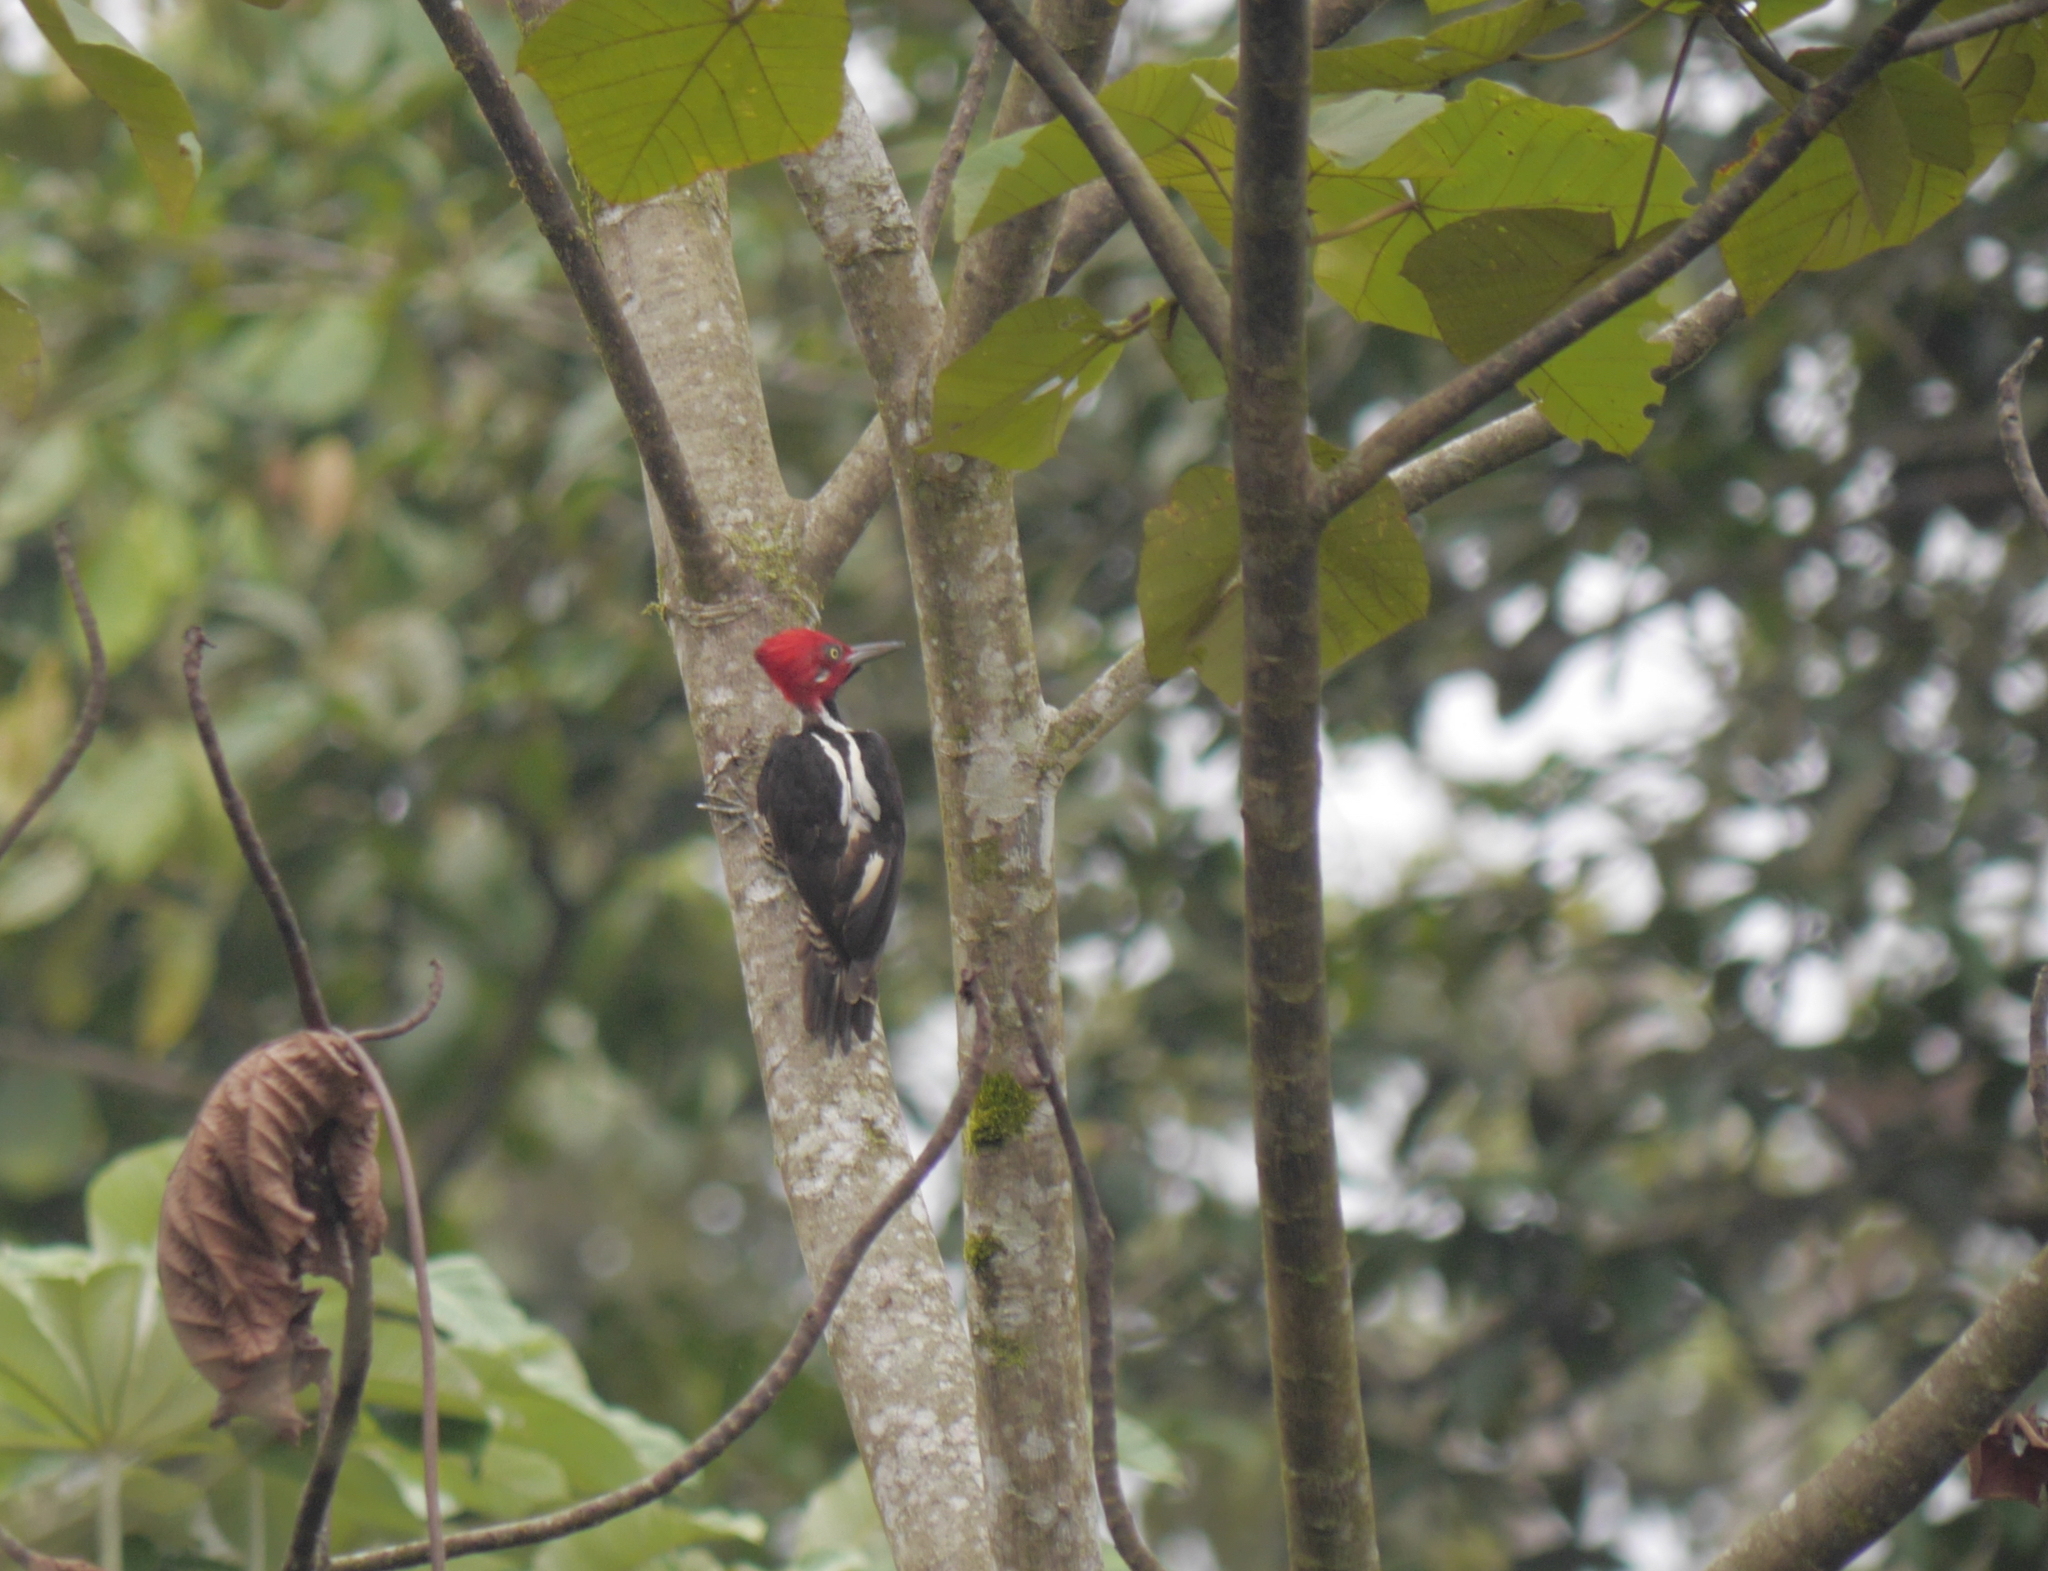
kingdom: Animalia
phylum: Chordata
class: Aves
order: Piciformes
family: Picidae
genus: Campephilus
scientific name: Campephilus gayaquilensis
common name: Guayaquil woodpecker
